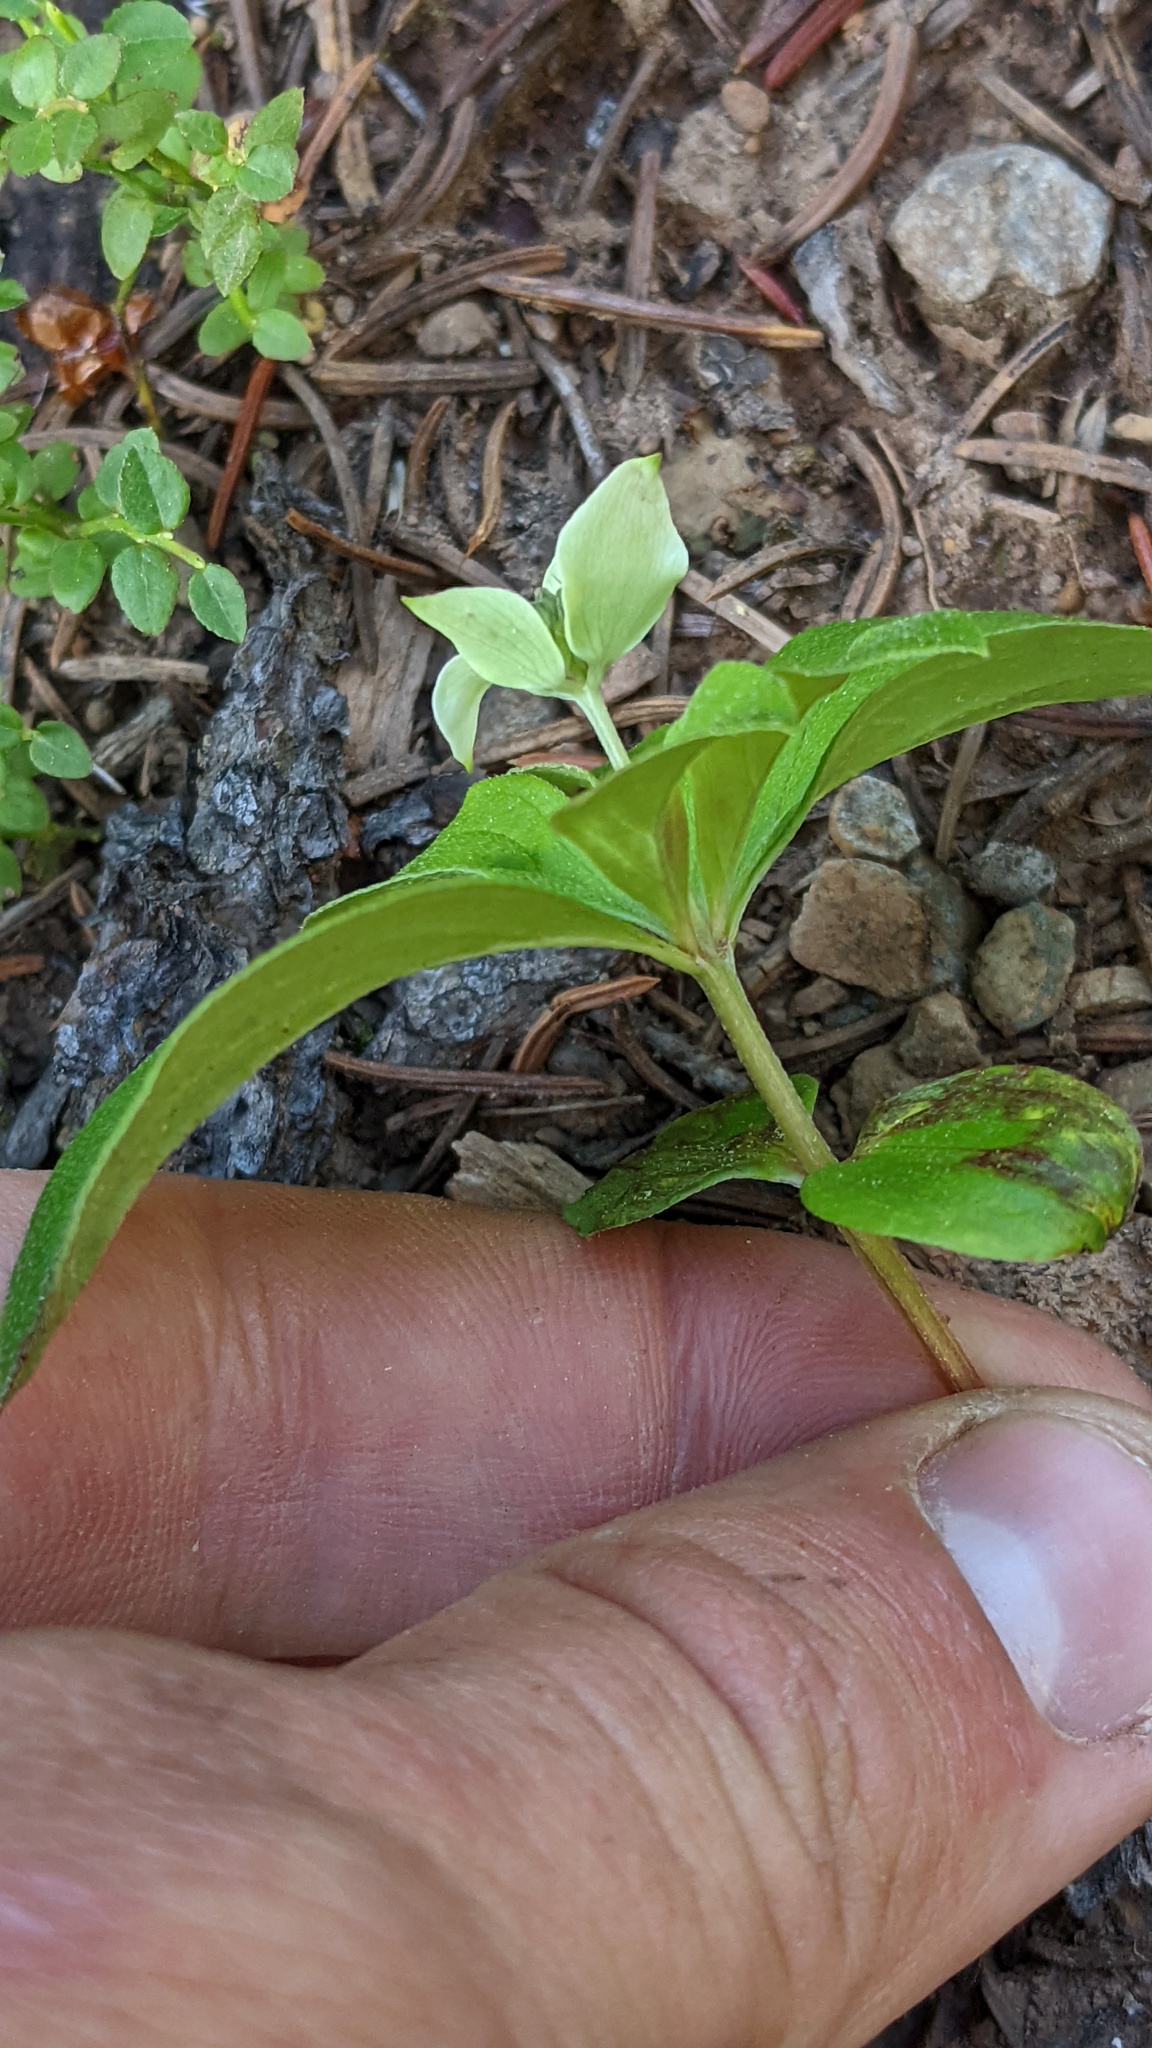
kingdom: Plantae
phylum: Tracheophyta
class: Magnoliopsida
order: Cornales
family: Cornaceae
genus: Cornus
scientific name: Cornus canadensis
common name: Creeping dogwood
